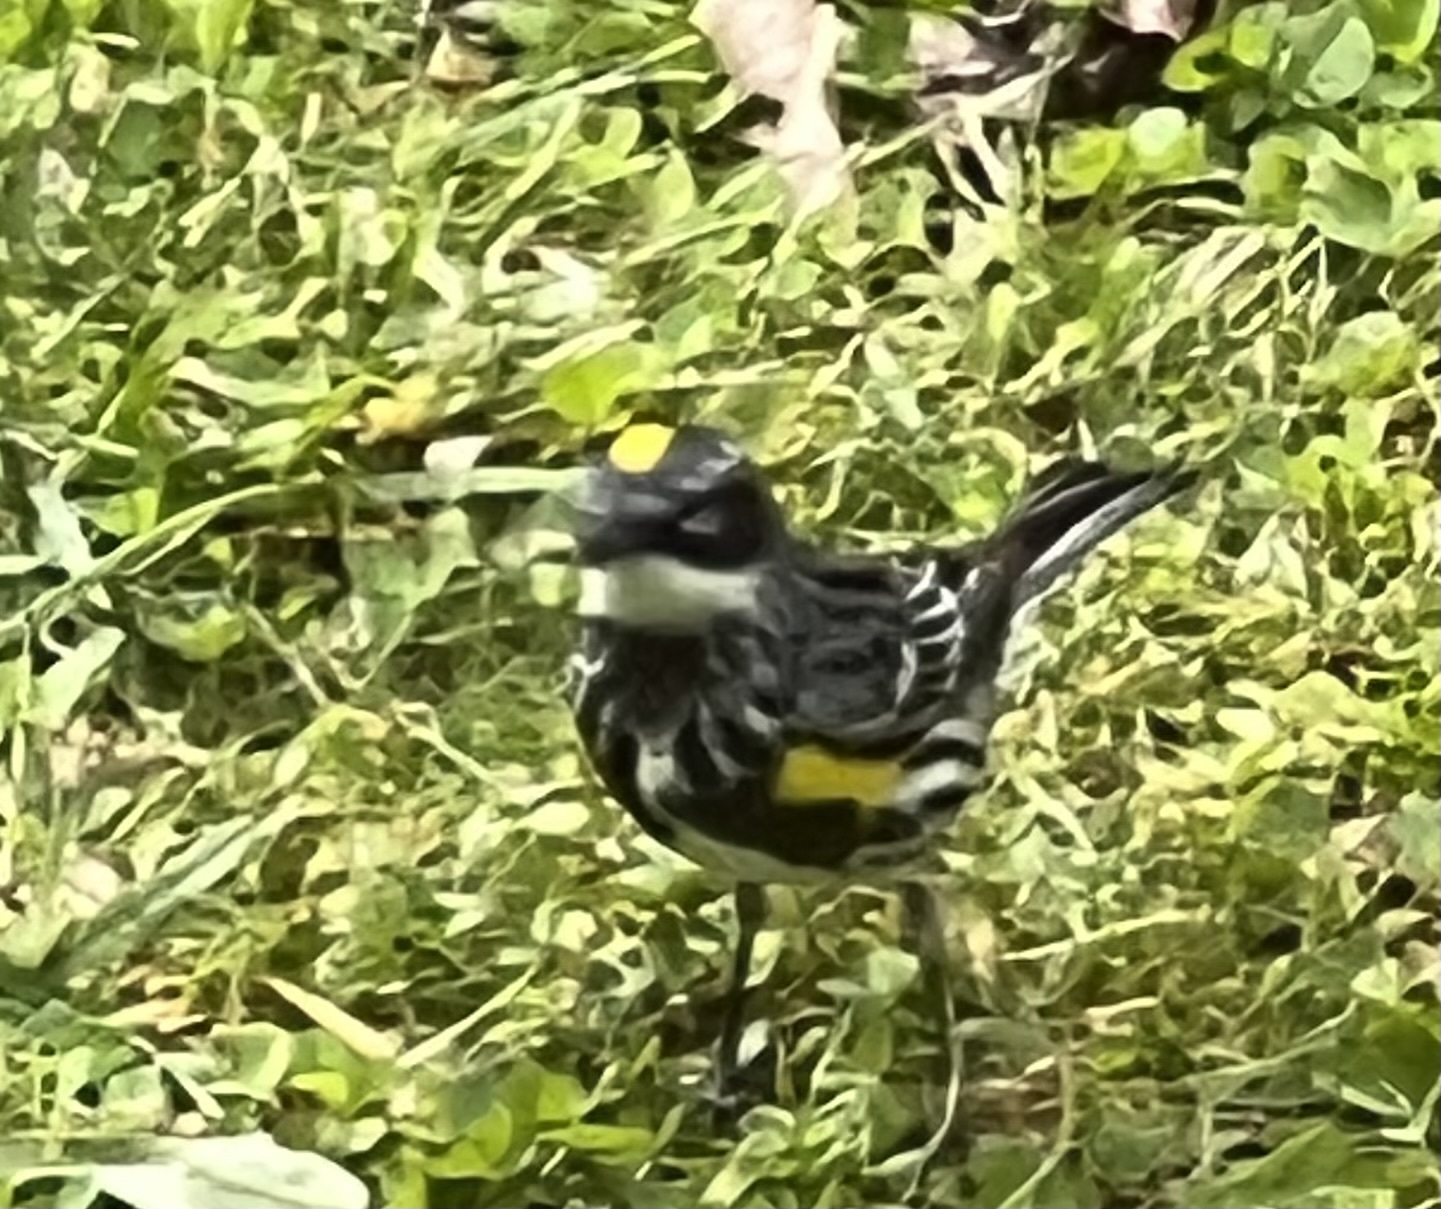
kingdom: Animalia
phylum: Chordata
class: Aves
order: Passeriformes
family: Parulidae
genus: Setophaga
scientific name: Setophaga coronata
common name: Myrtle warbler
